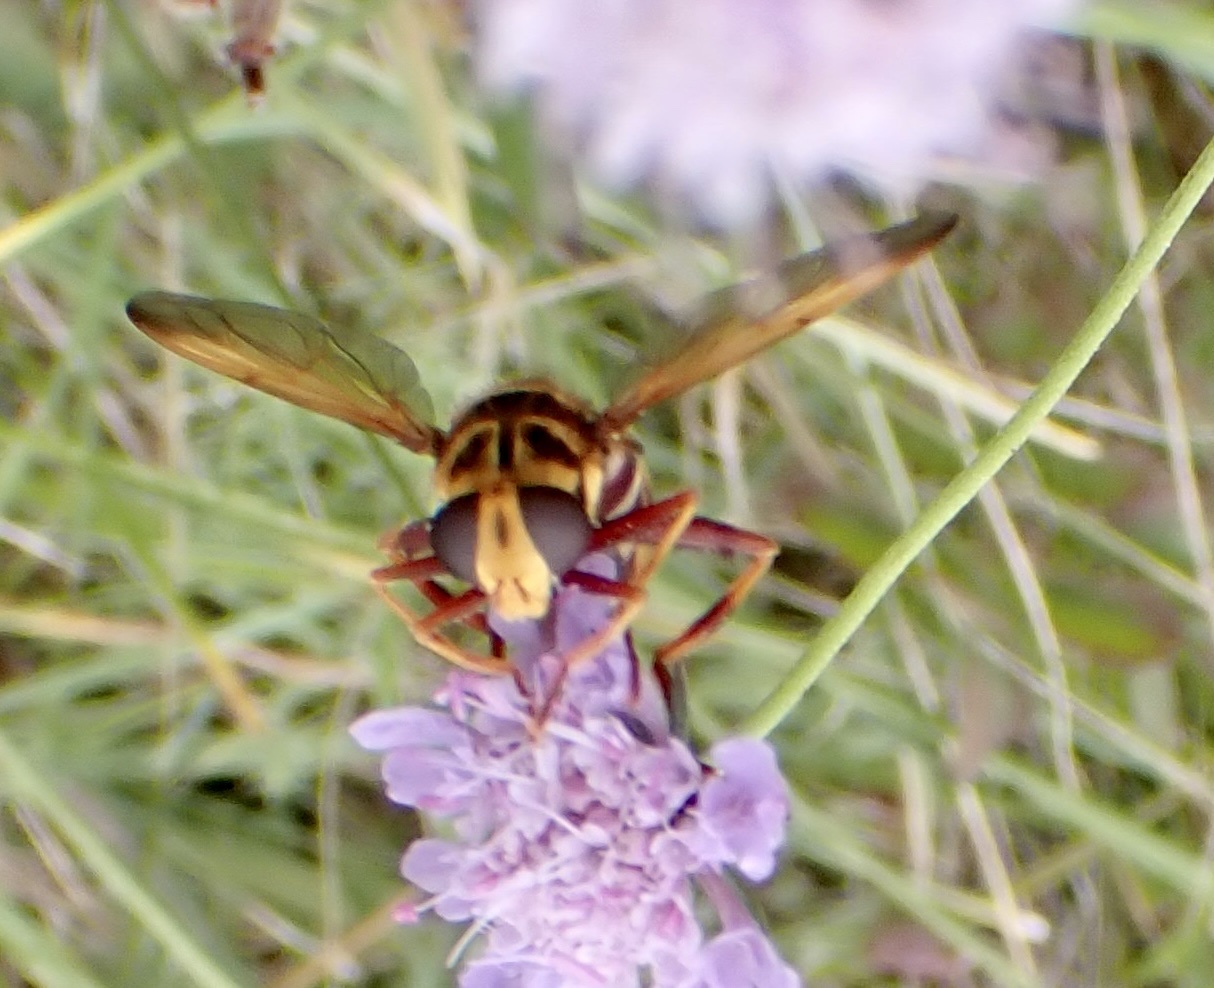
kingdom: Animalia
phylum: Arthropoda
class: Insecta
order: Diptera
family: Syrphidae
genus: Milesia
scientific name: Milesia crabroniformis
